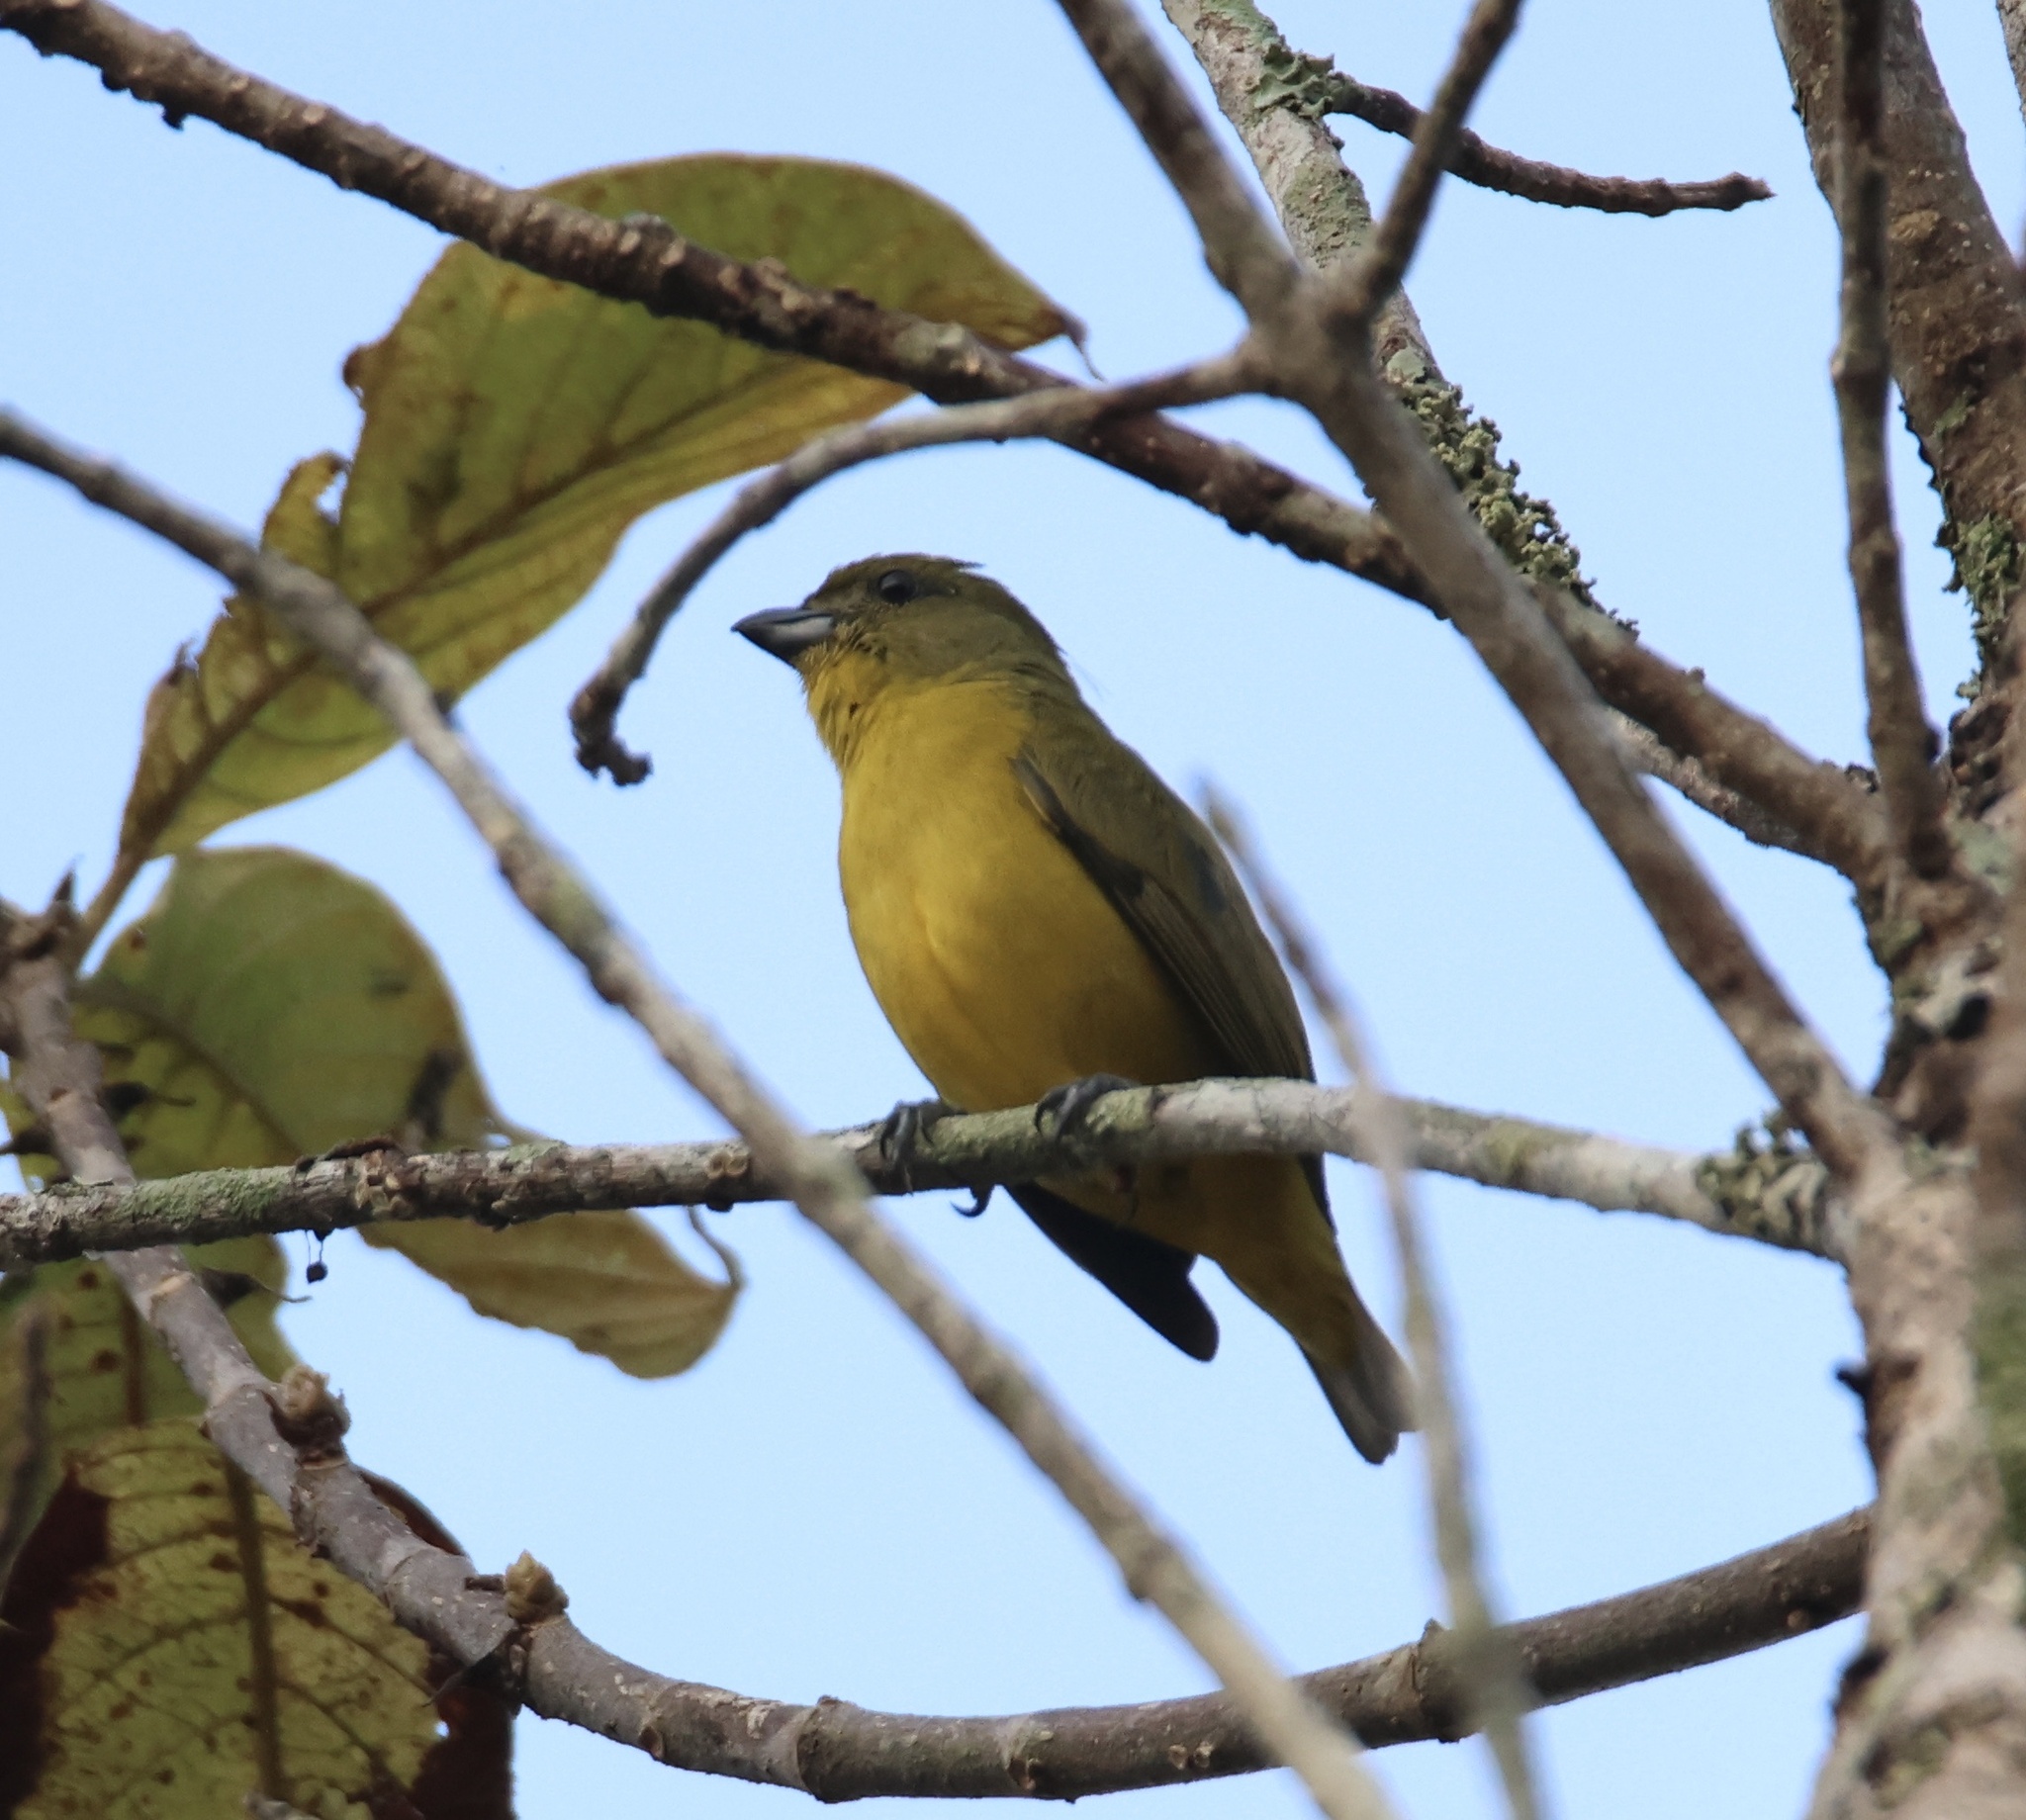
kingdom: Animalia
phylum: Chordata
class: Aves
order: Passeriformes
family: Fringillidae
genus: Euphonia
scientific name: Euphonia laniirostris
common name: Thick-billed euphonia
